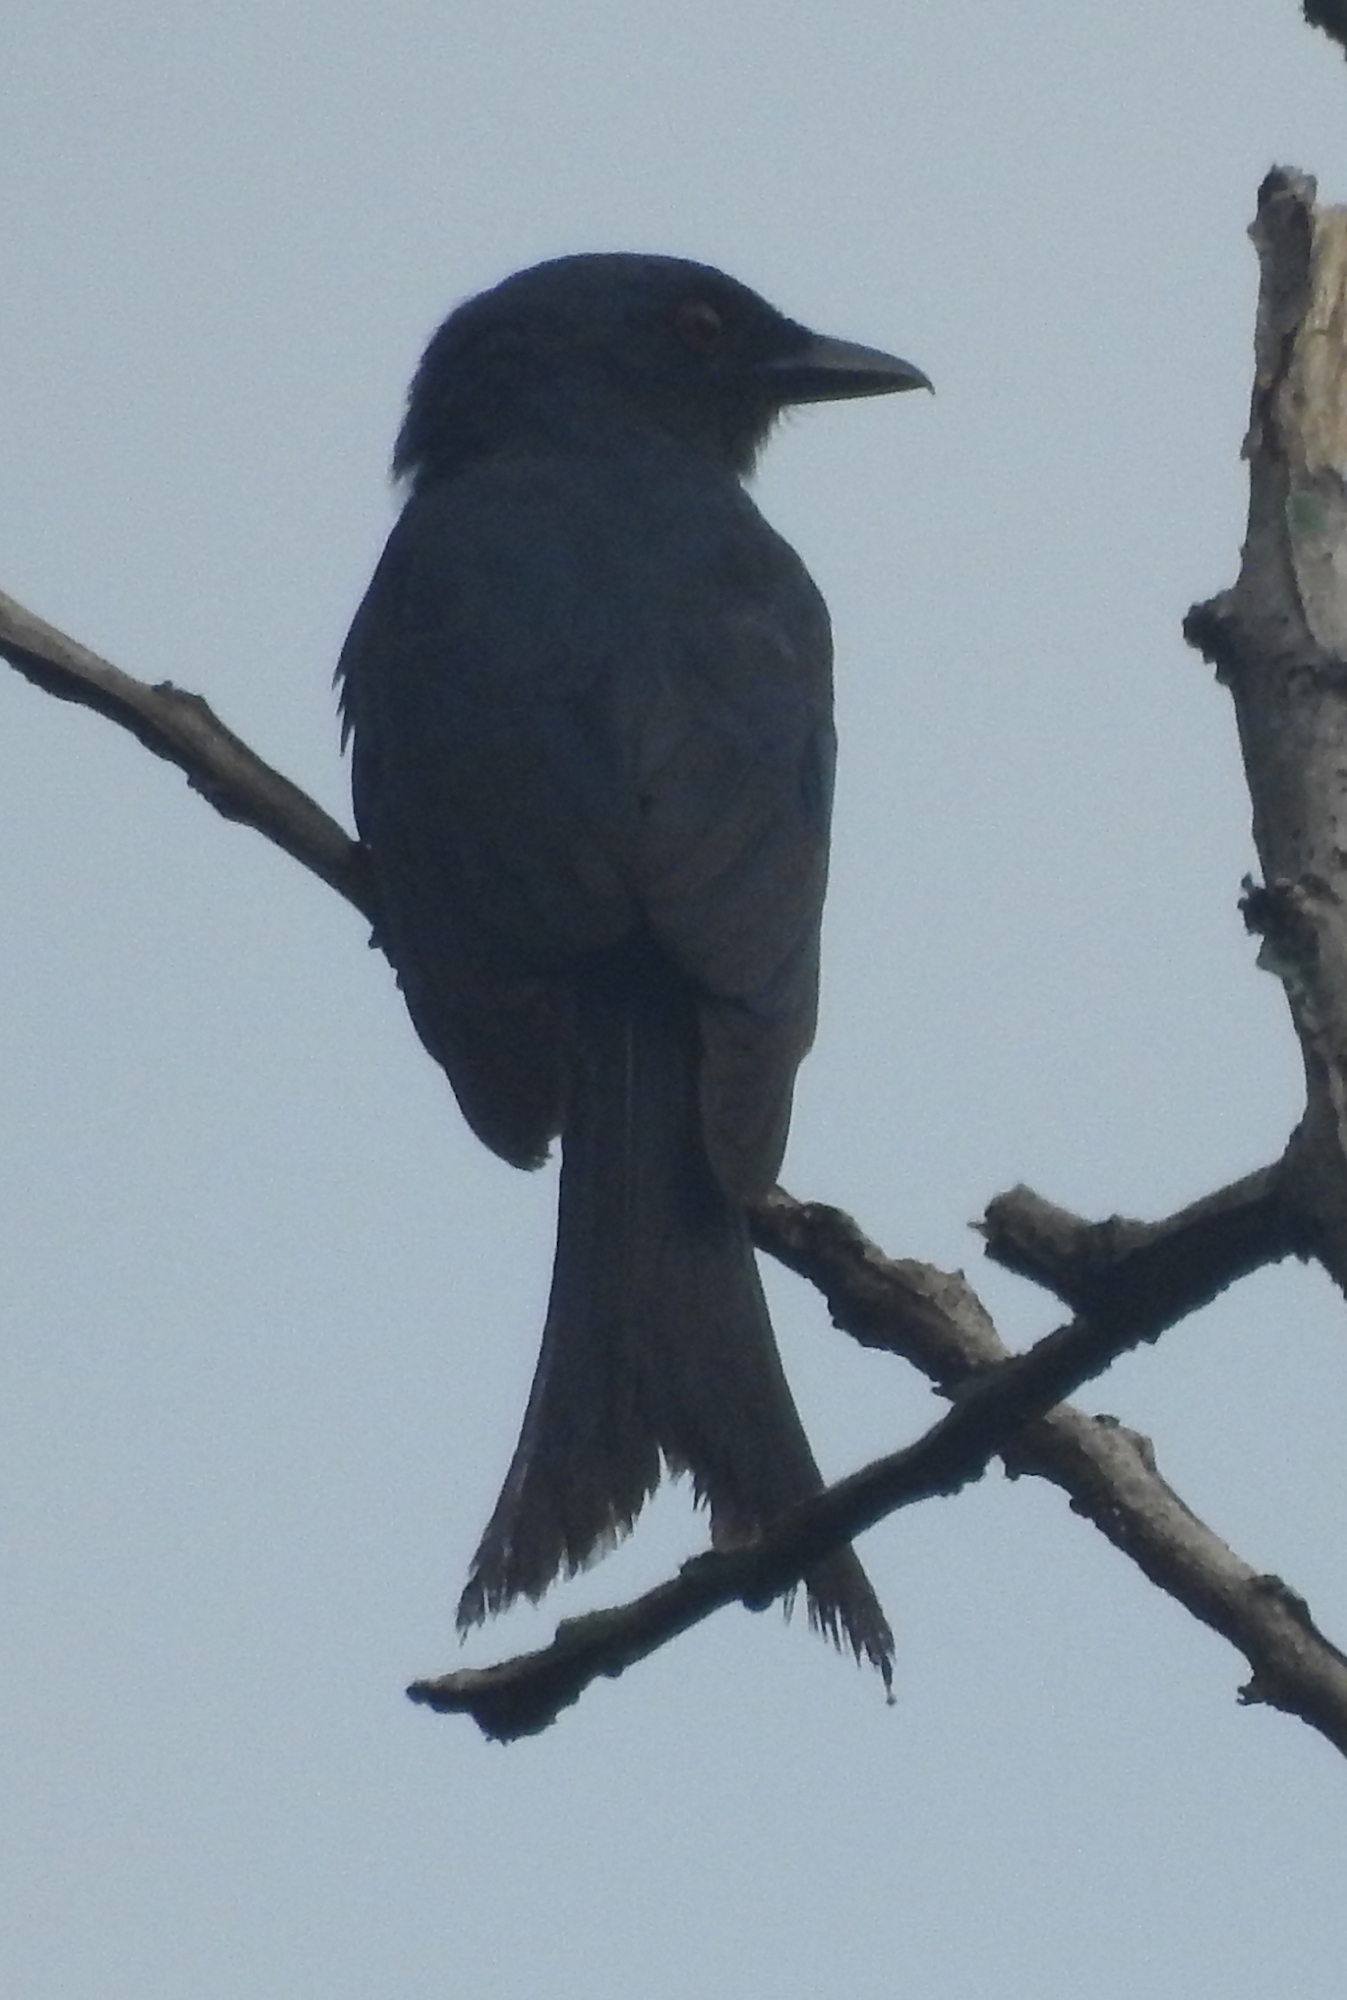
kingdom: Animalia
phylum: Chordata
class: Aves
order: Passeriformes
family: Dicruridae
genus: Dicrurus
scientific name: Dicrurus leucophaeus
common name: Ashy drongo
